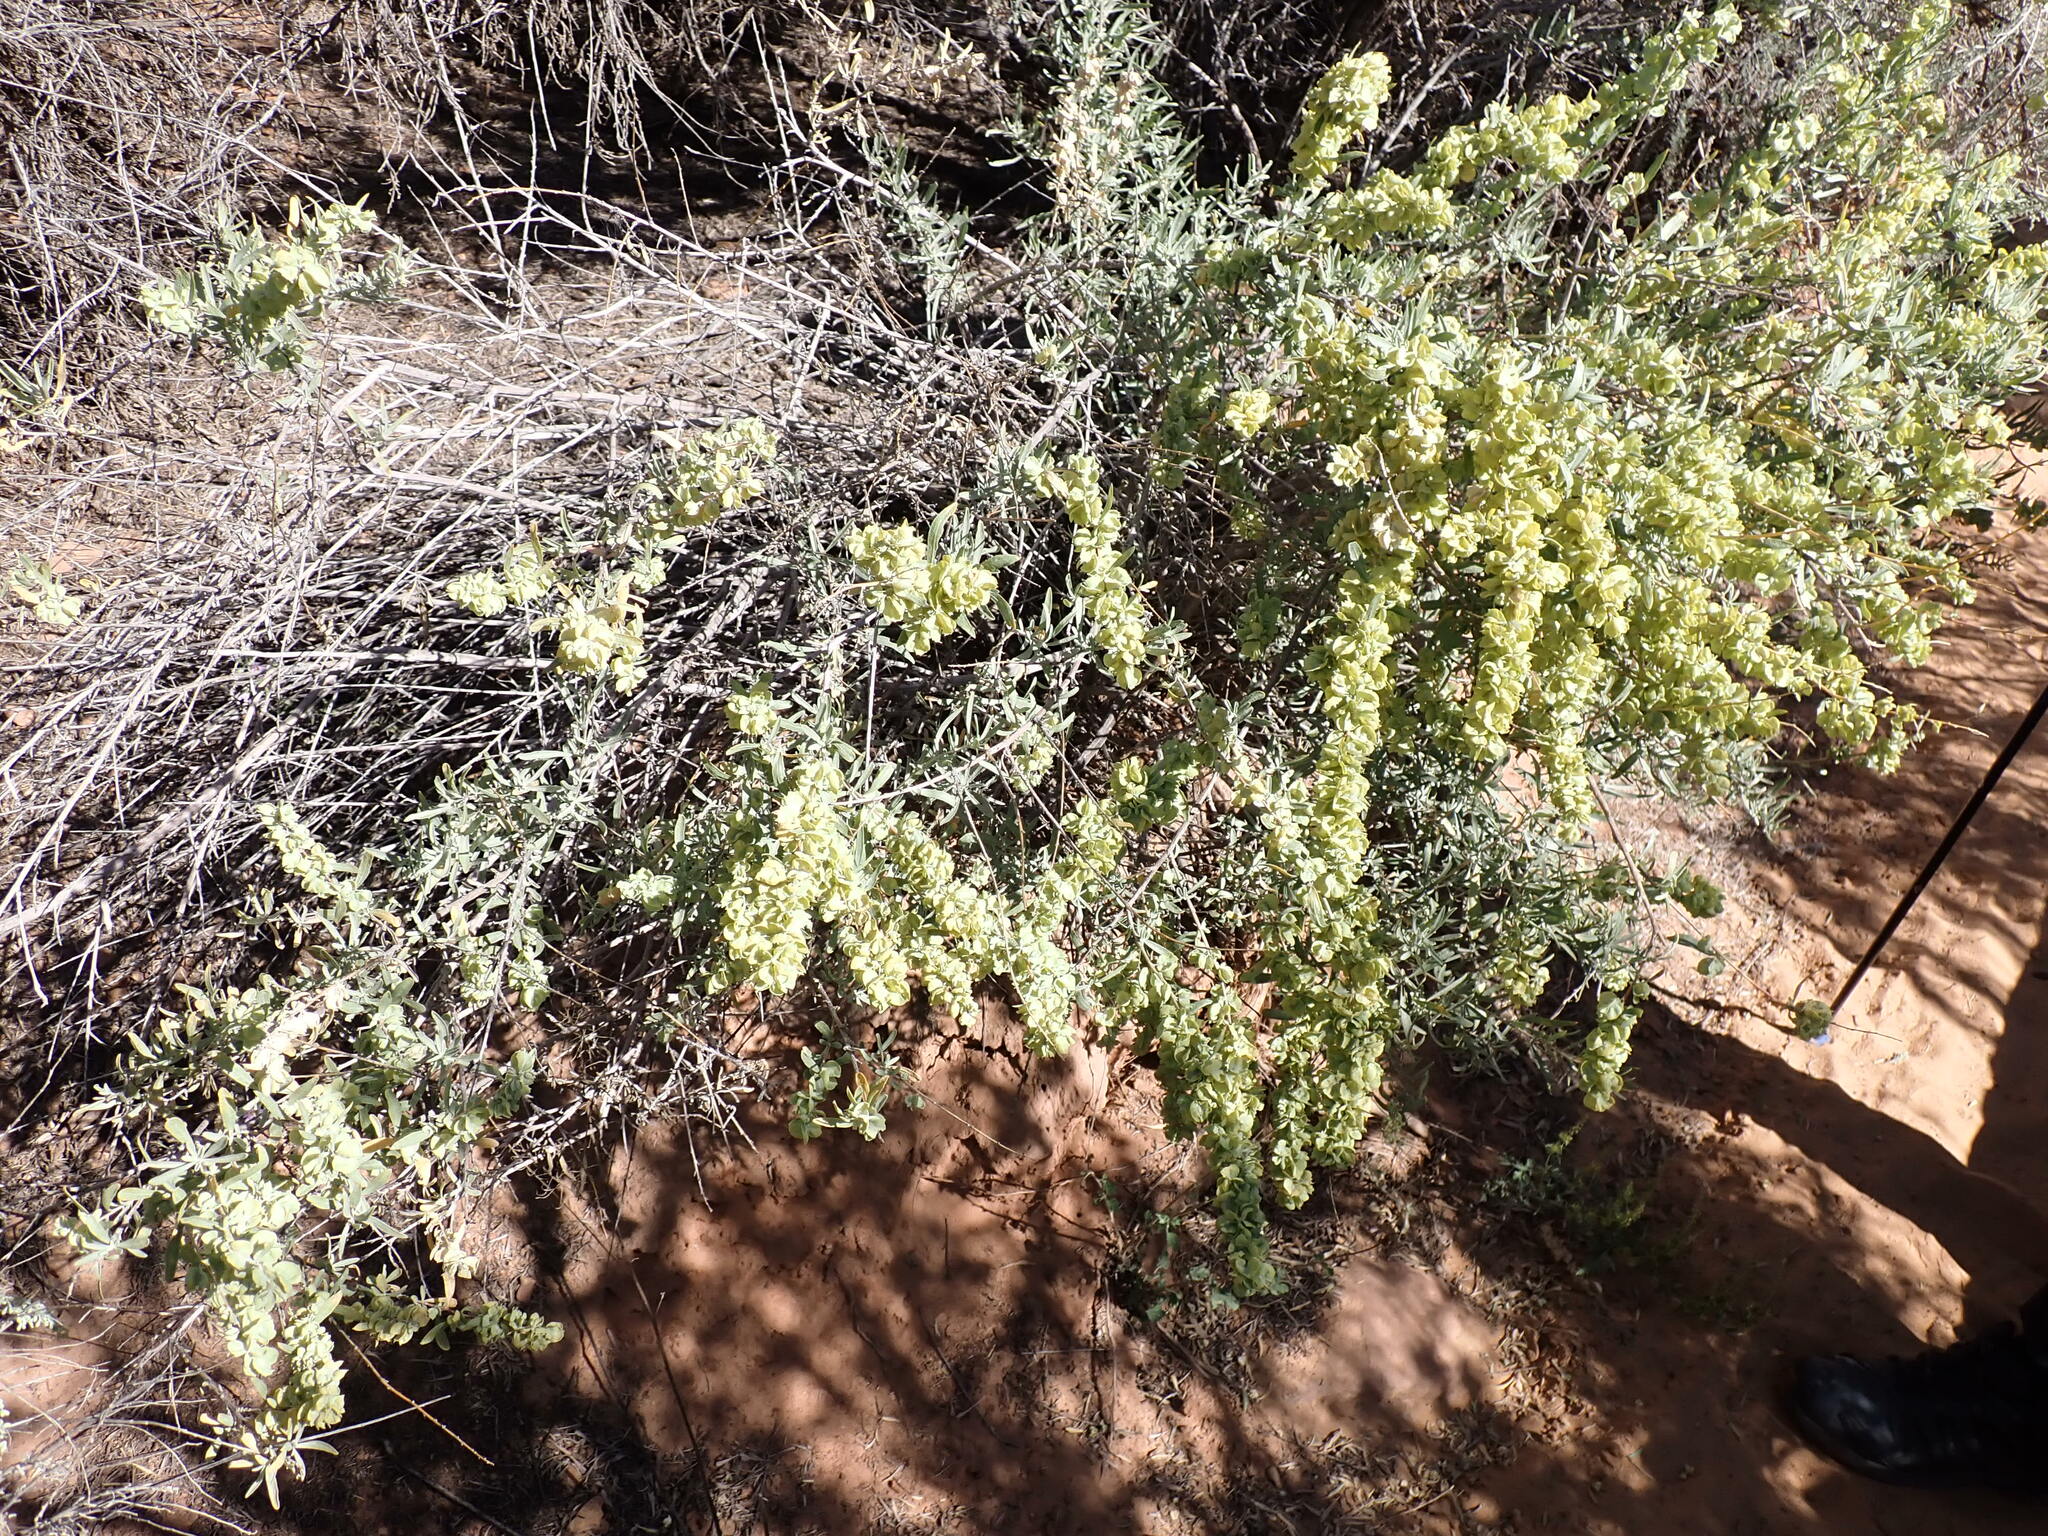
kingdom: Plantae
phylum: Tracheophyta
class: Magnoliopsida
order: Caryophyllales
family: Amaranthaceae
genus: Atriplex
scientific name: Atriplex canescens
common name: Four-wing saltbush
